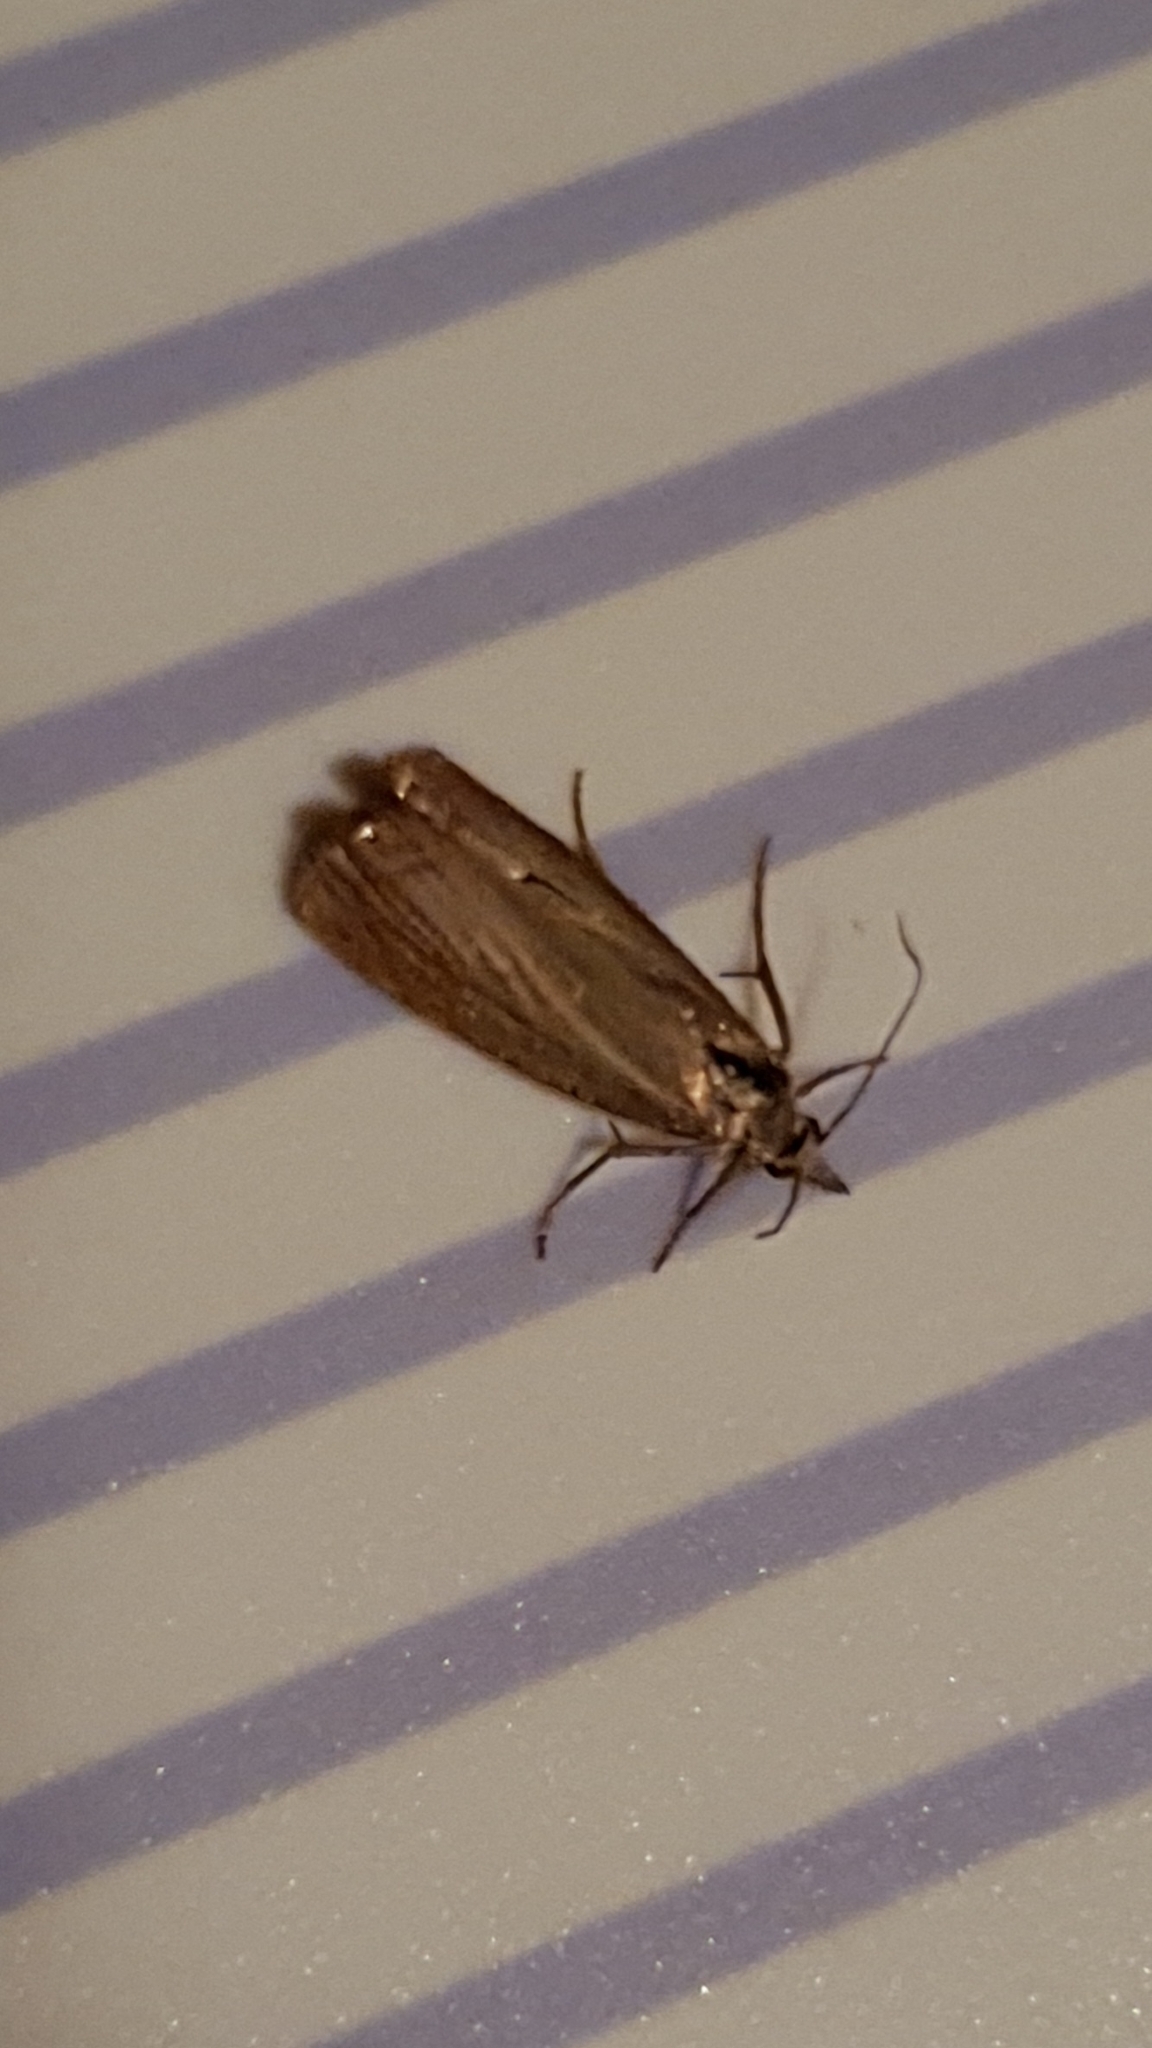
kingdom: Animalia
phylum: Arthropoda
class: Insecta
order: Lepidoptera
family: Crambidae
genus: Chrysoteuchia
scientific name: Chrysoteuchia culmella
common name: Garden grass-veneer
